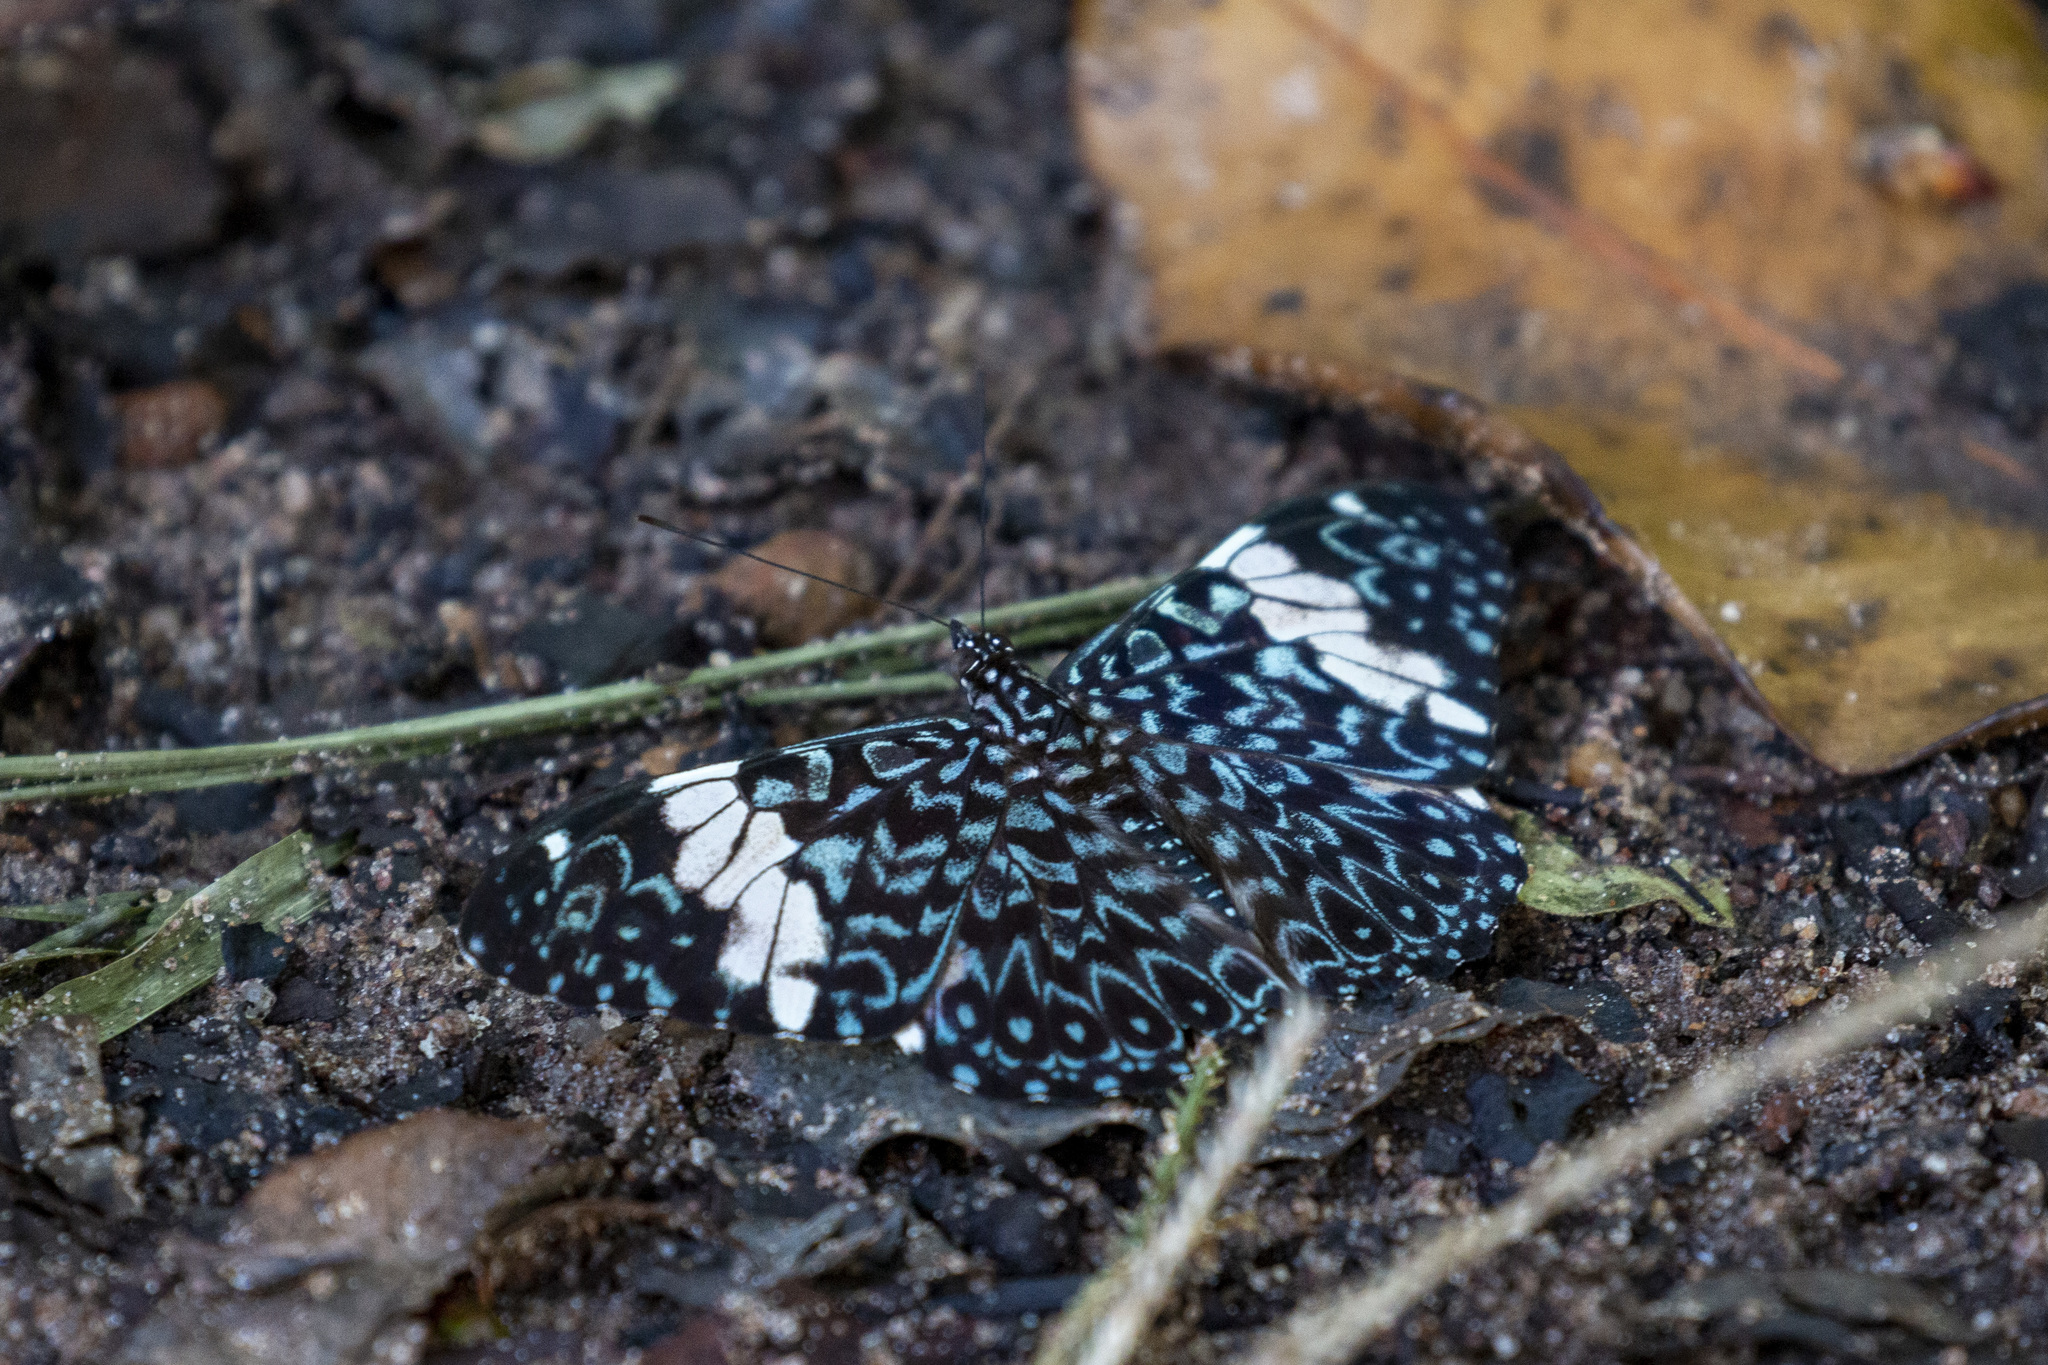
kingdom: Animalia
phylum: Arthropoda
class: Insecta
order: Lepidoptera
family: Nymphalidae
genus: Hamadryas
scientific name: Hamadryas amphinome
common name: Red cracker
